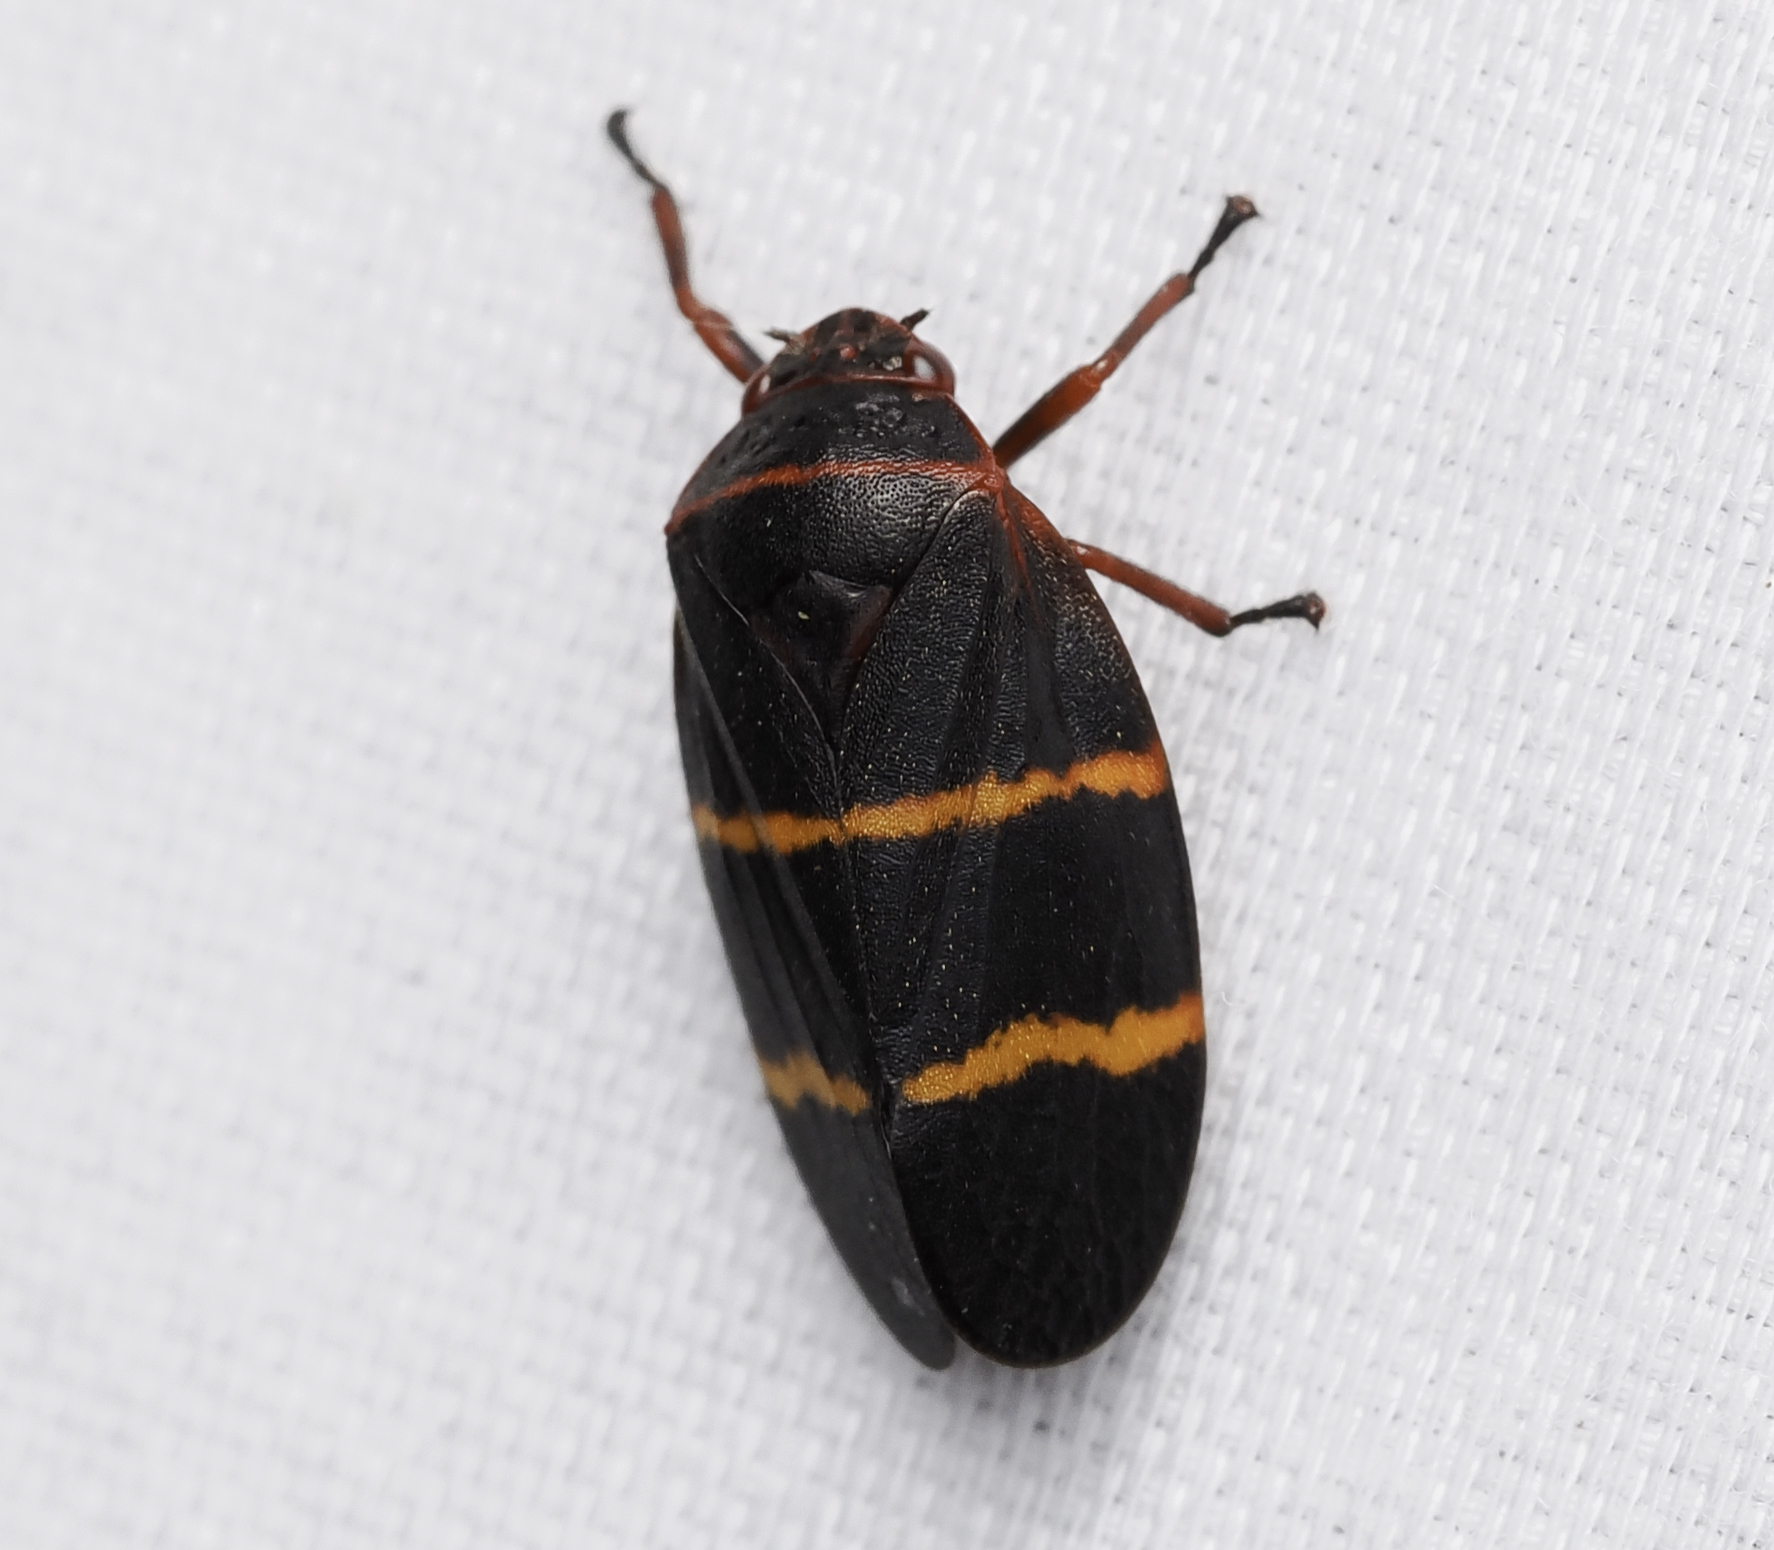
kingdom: Animalia
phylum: Arthropoda
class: Insecta
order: Hemiptera
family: Cercopidae
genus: Prosapia
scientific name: Prosapia bicincta
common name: Twolined spittlebug
